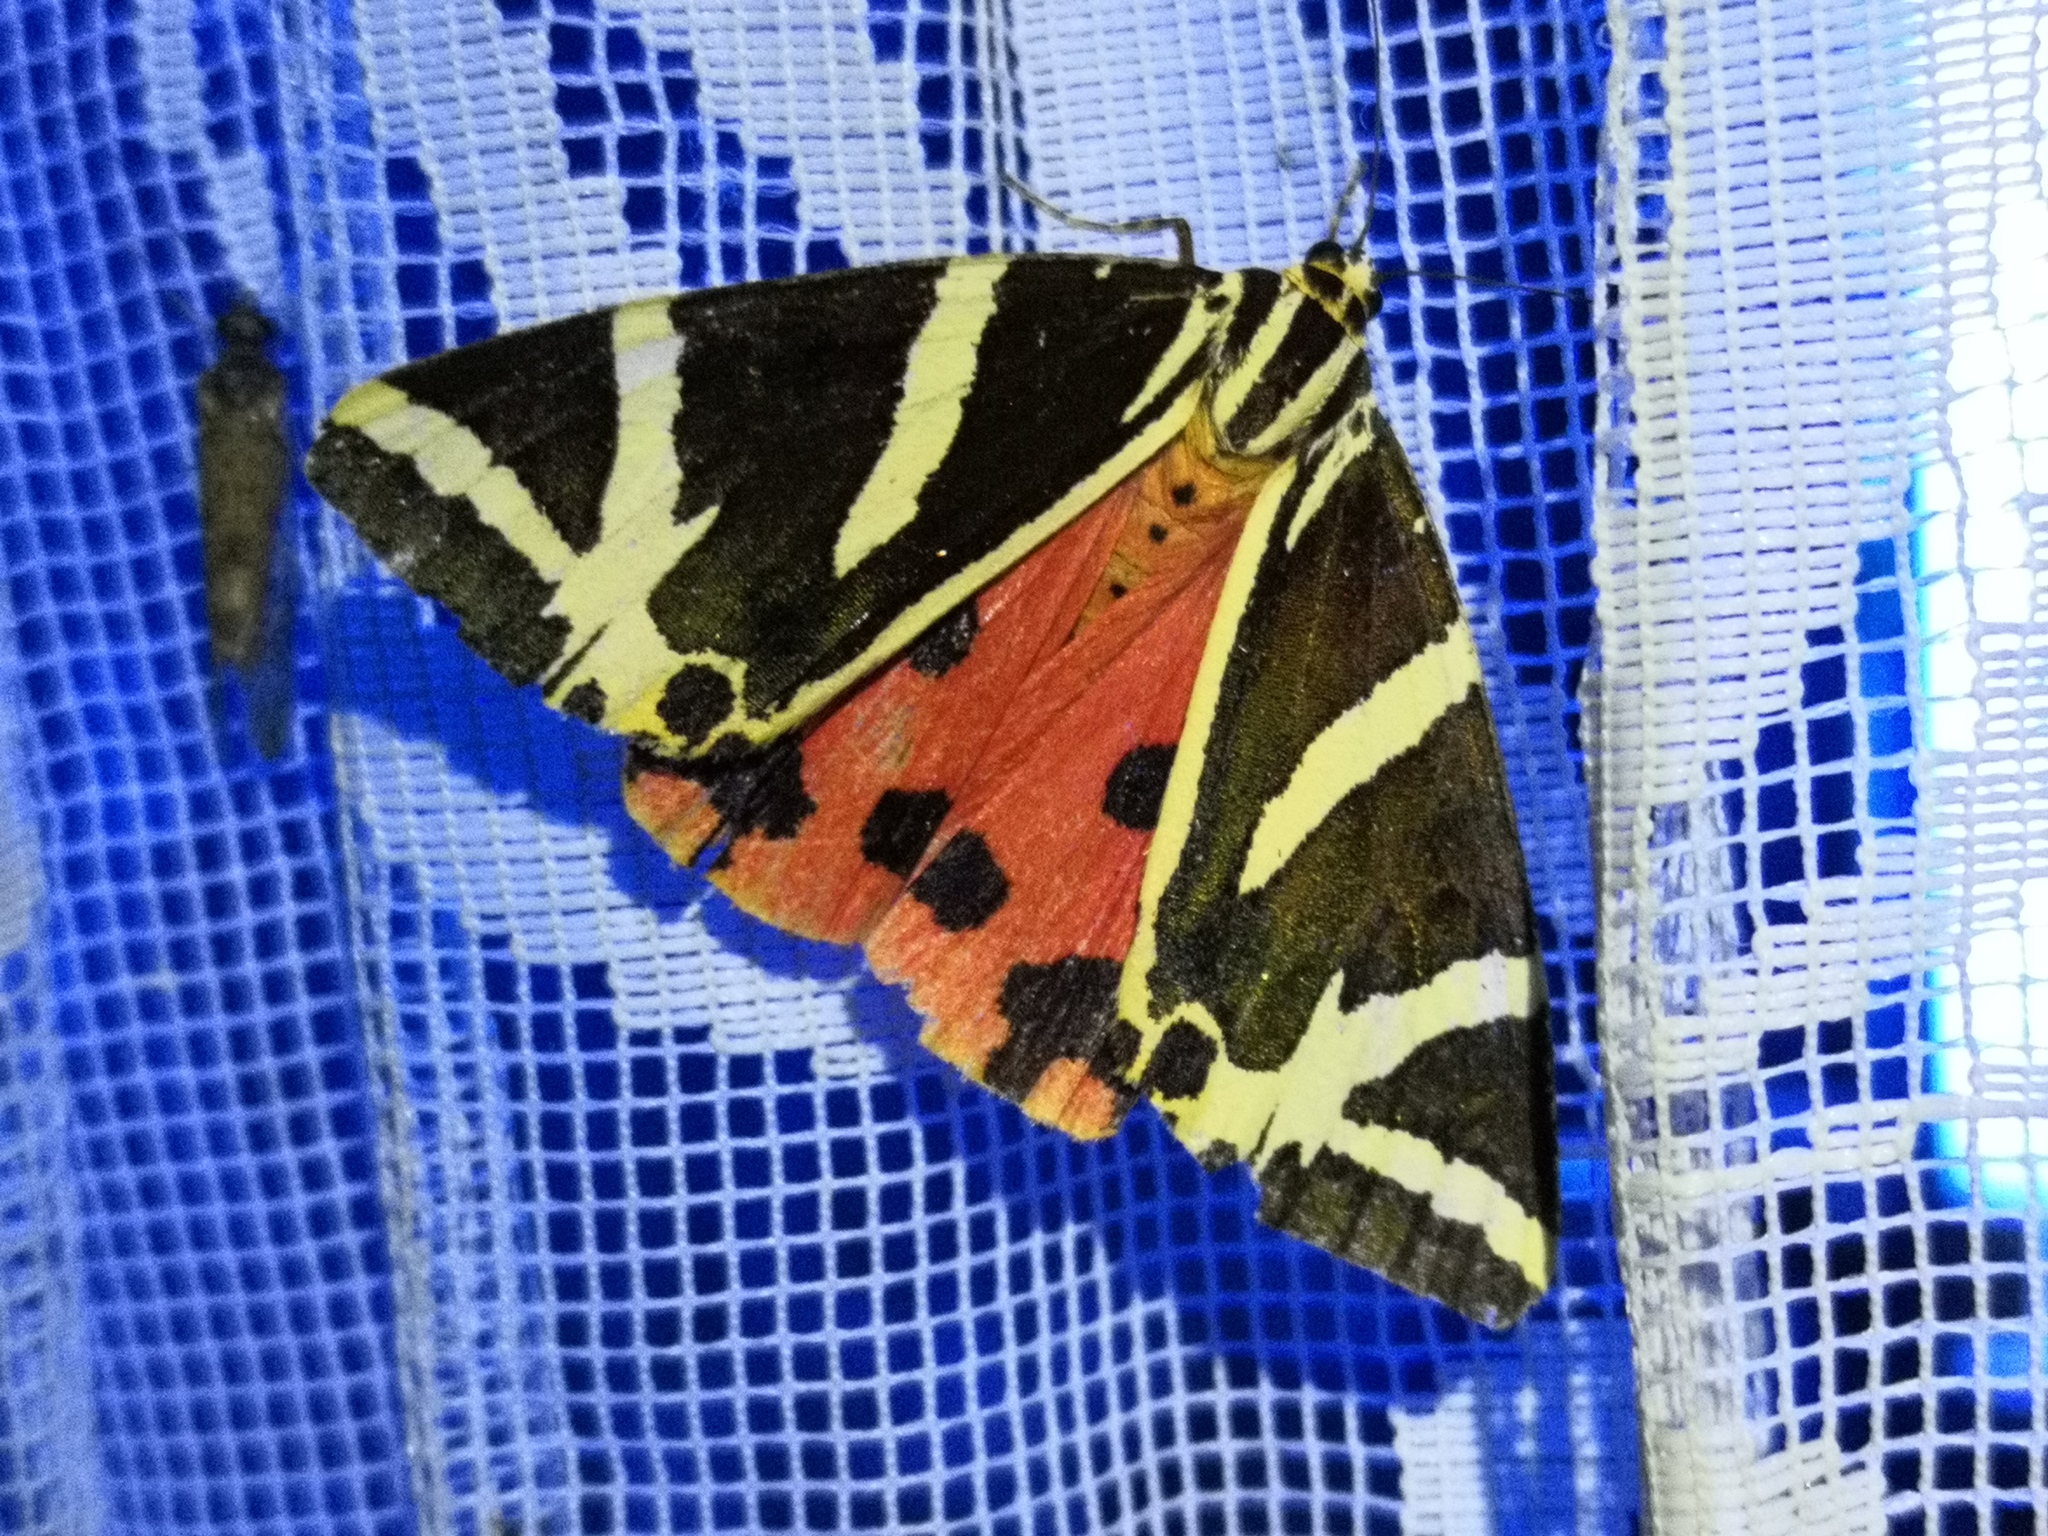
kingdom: Animalia
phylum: Arthropoda
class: Insecta
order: Lepidoptera
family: Erebidae
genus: Euplagia
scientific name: Euplagia quadripunctaria
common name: Jersey tiger
